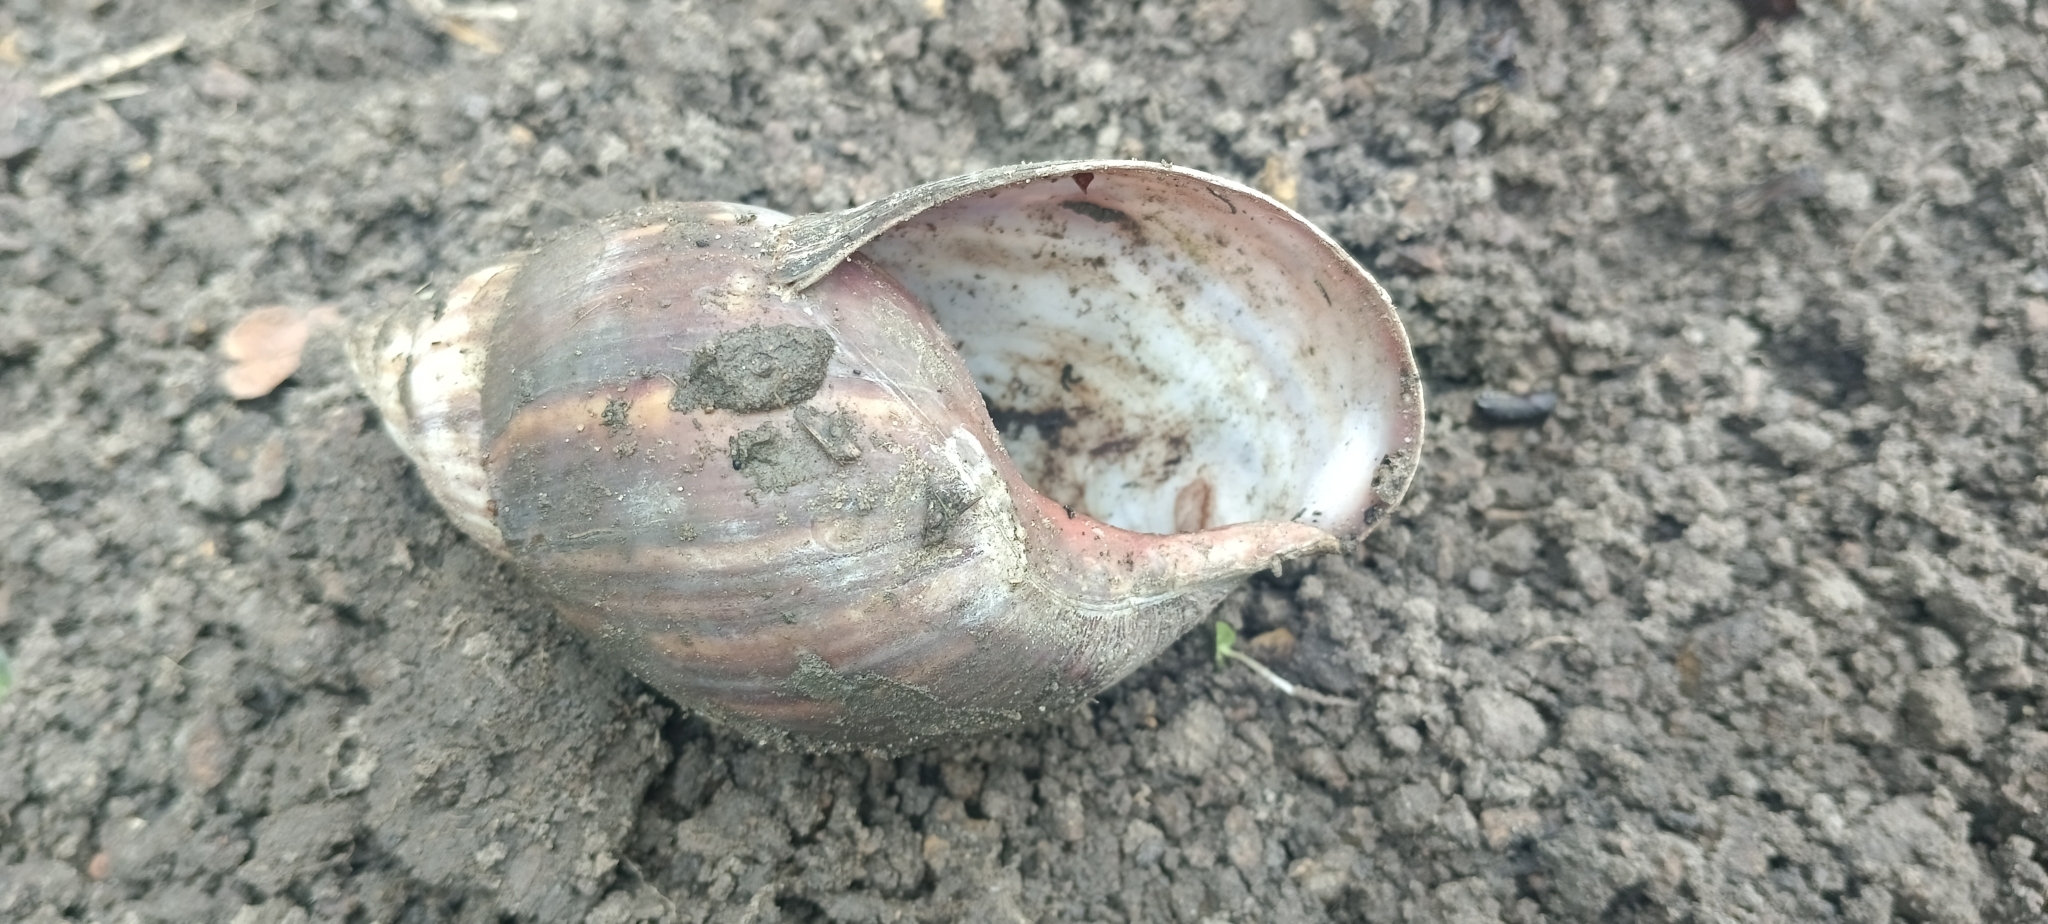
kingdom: Animalia
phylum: Mollusca
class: Gastropoda
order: Stylommatophora
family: Achatinidae
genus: Lissachatina
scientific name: Lissachatina immaculata
